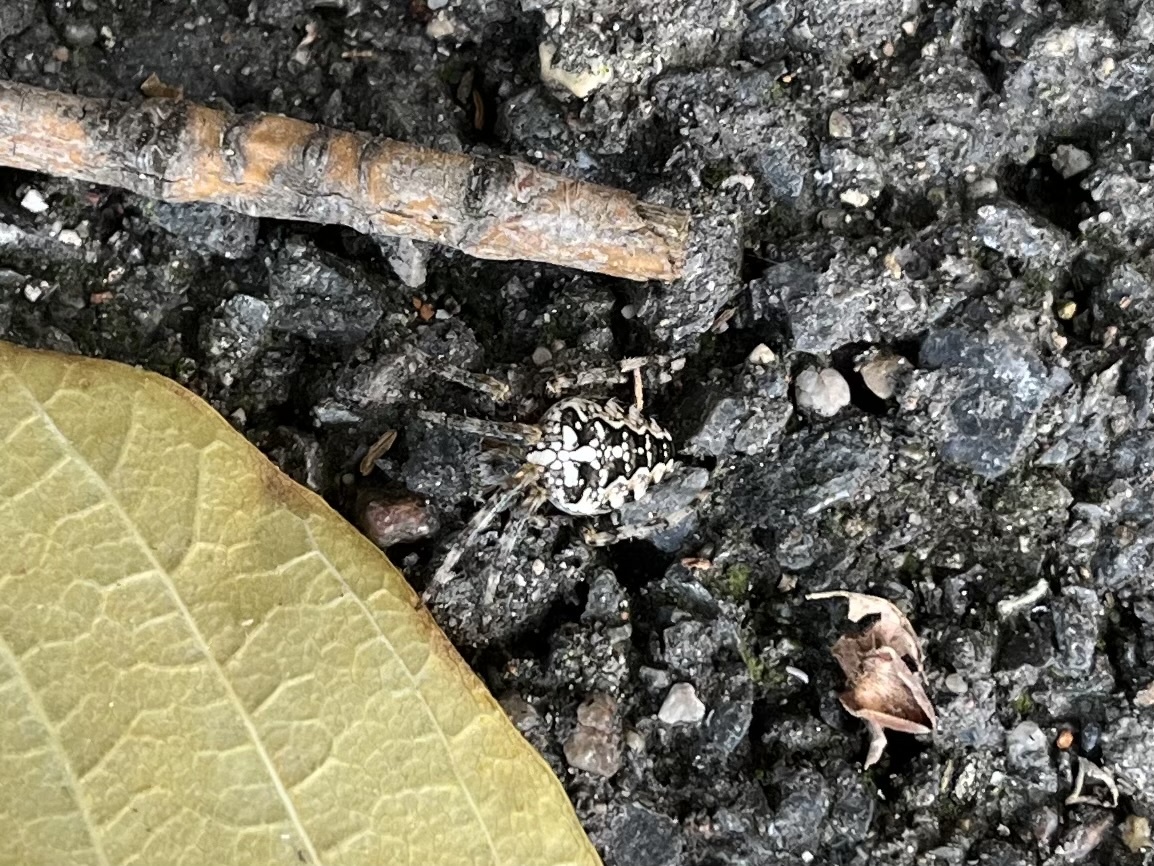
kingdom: Animalia
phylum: Arthropoda
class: Arachnida
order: Araneae
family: Araneidae
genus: Araneus
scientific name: Araneus diadematus
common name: Cross orbweaver
